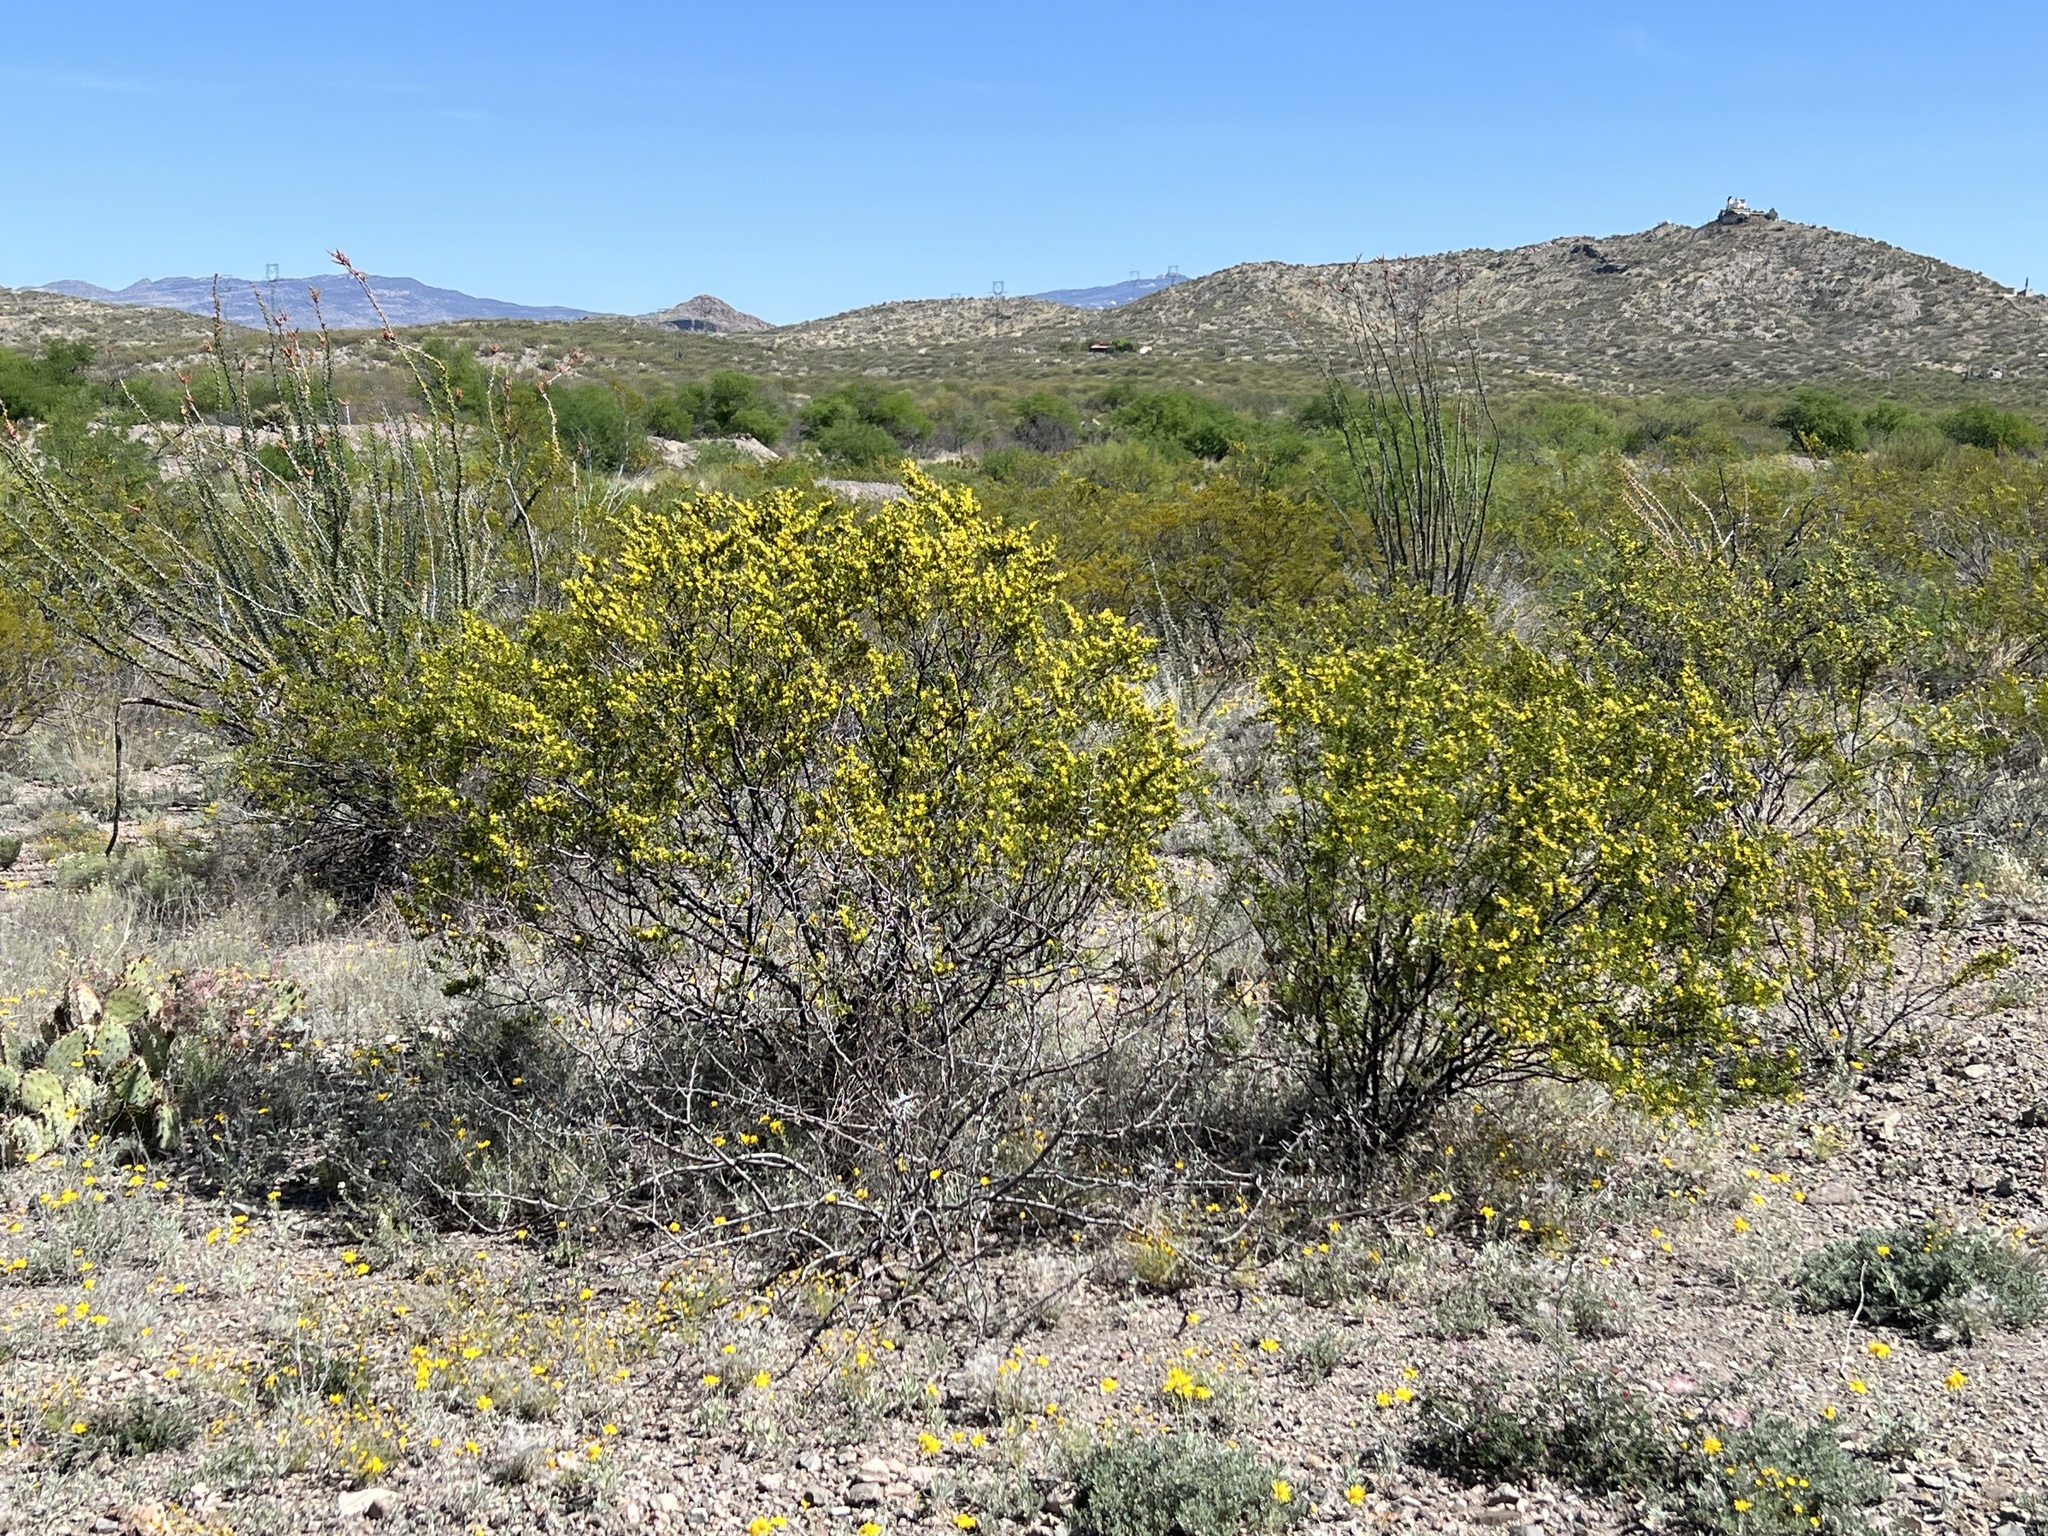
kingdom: Plantae
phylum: Tracheophyta
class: Magnoliopsida
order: Zygophyllales
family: Zygophyllaceae
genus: Larrea
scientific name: Larrea tridentata
